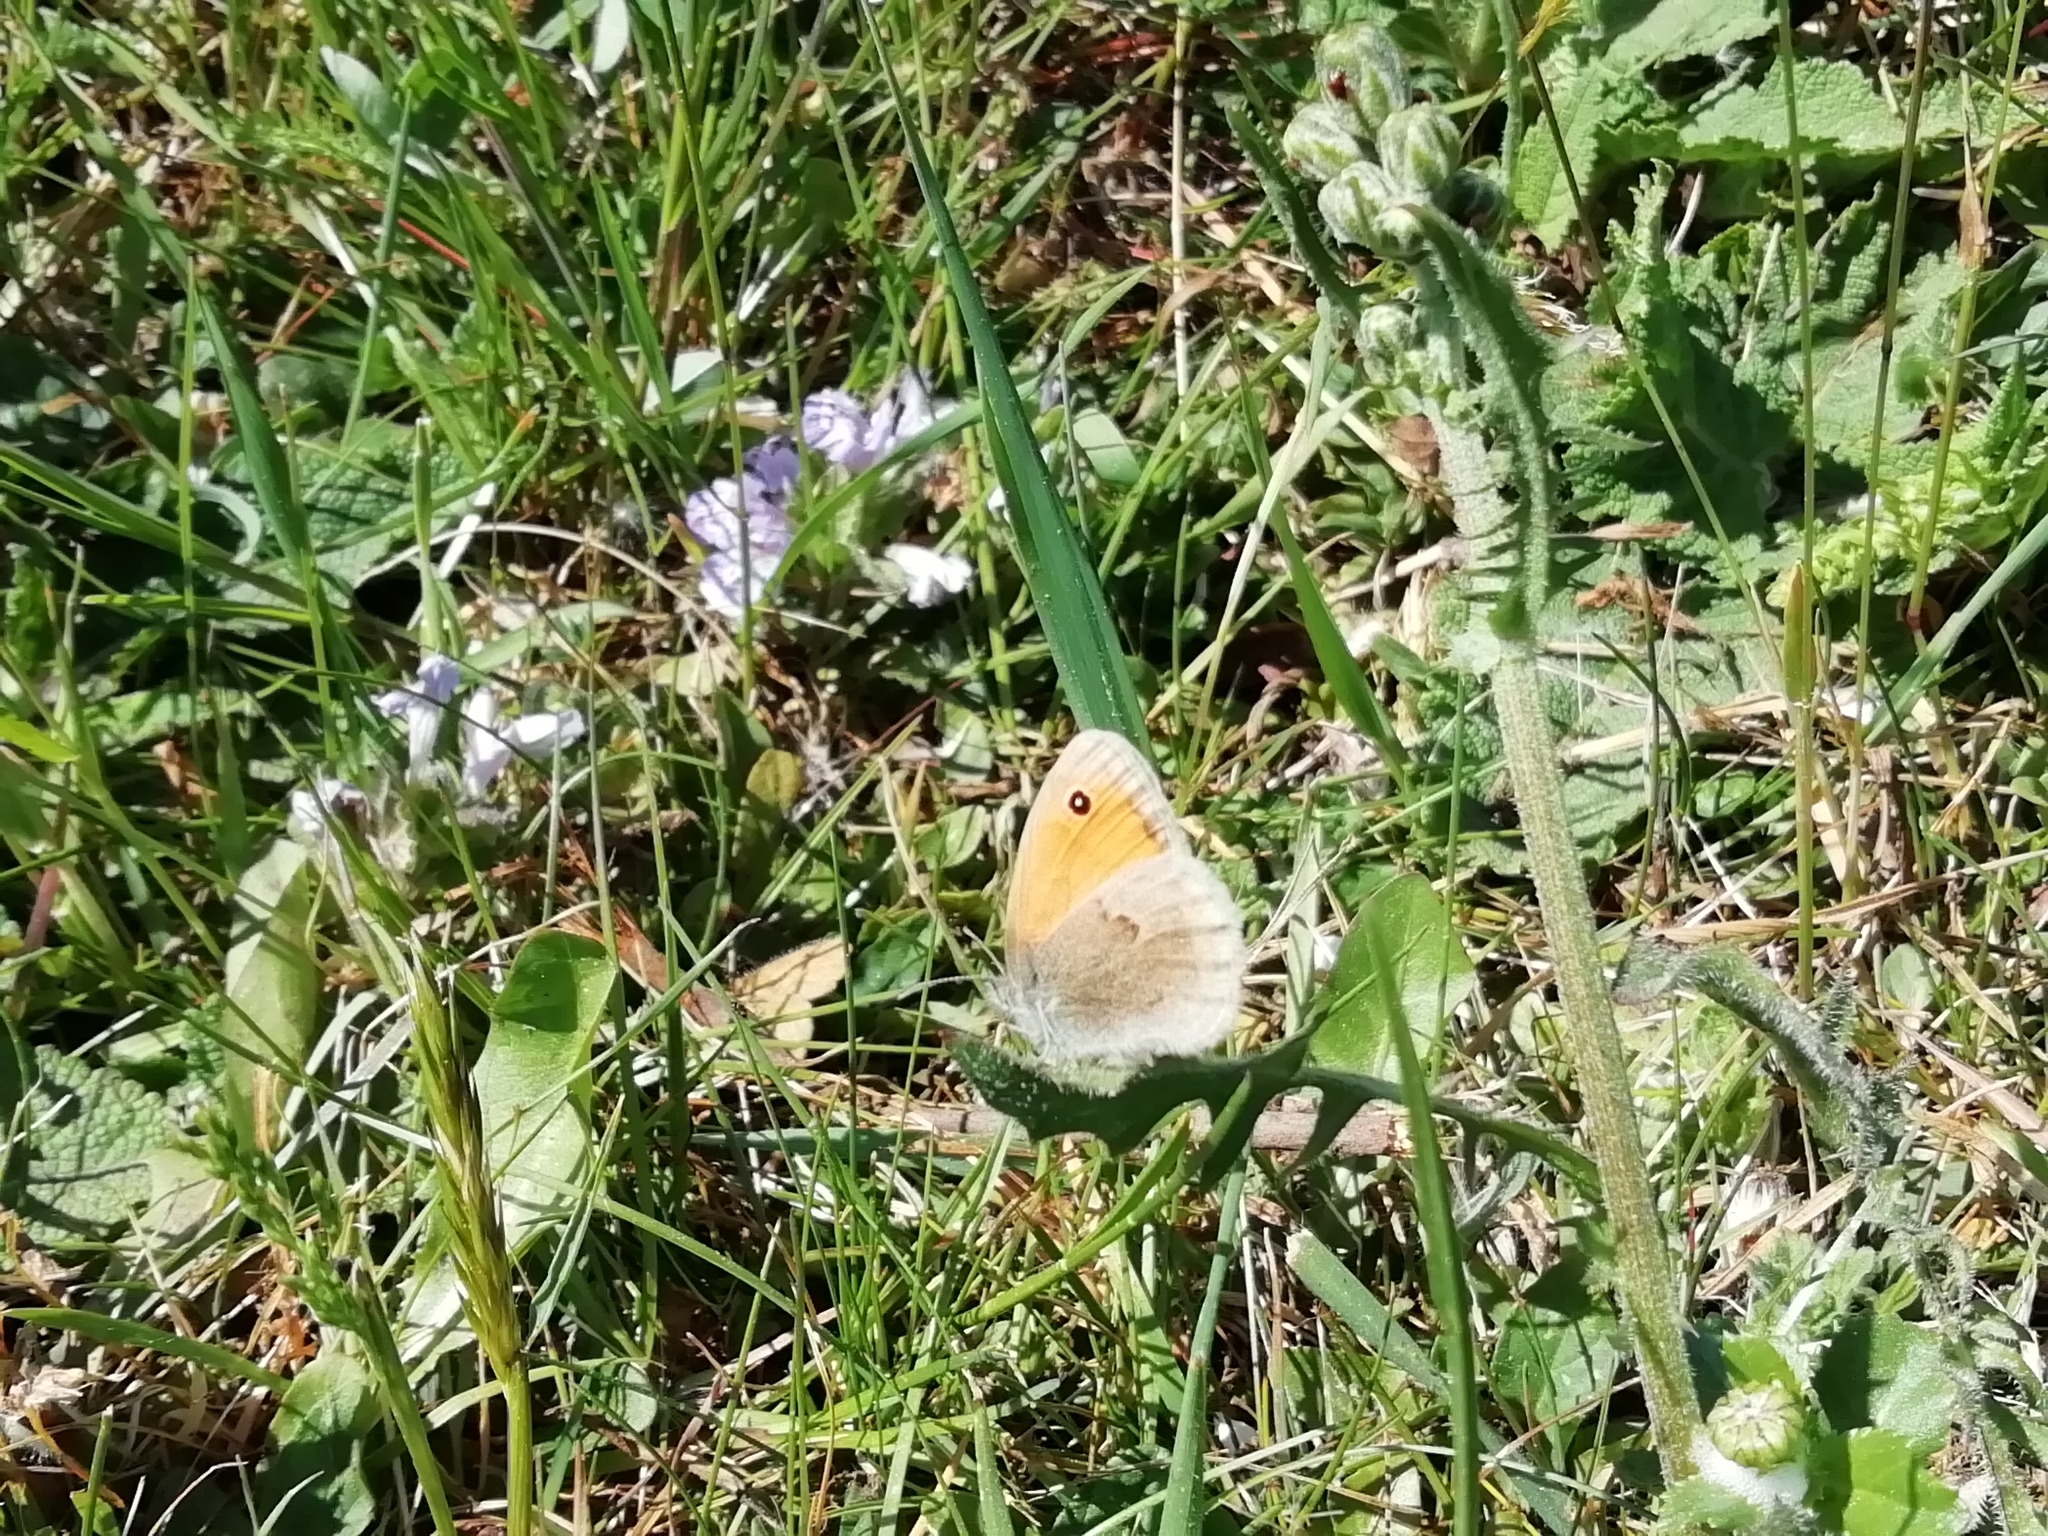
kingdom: Animalia
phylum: Arthropoda
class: Insecta
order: Lepidoptera
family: Nymphalidae
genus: Coenonympha
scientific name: Coenonympha pamphilus
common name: Small heath
